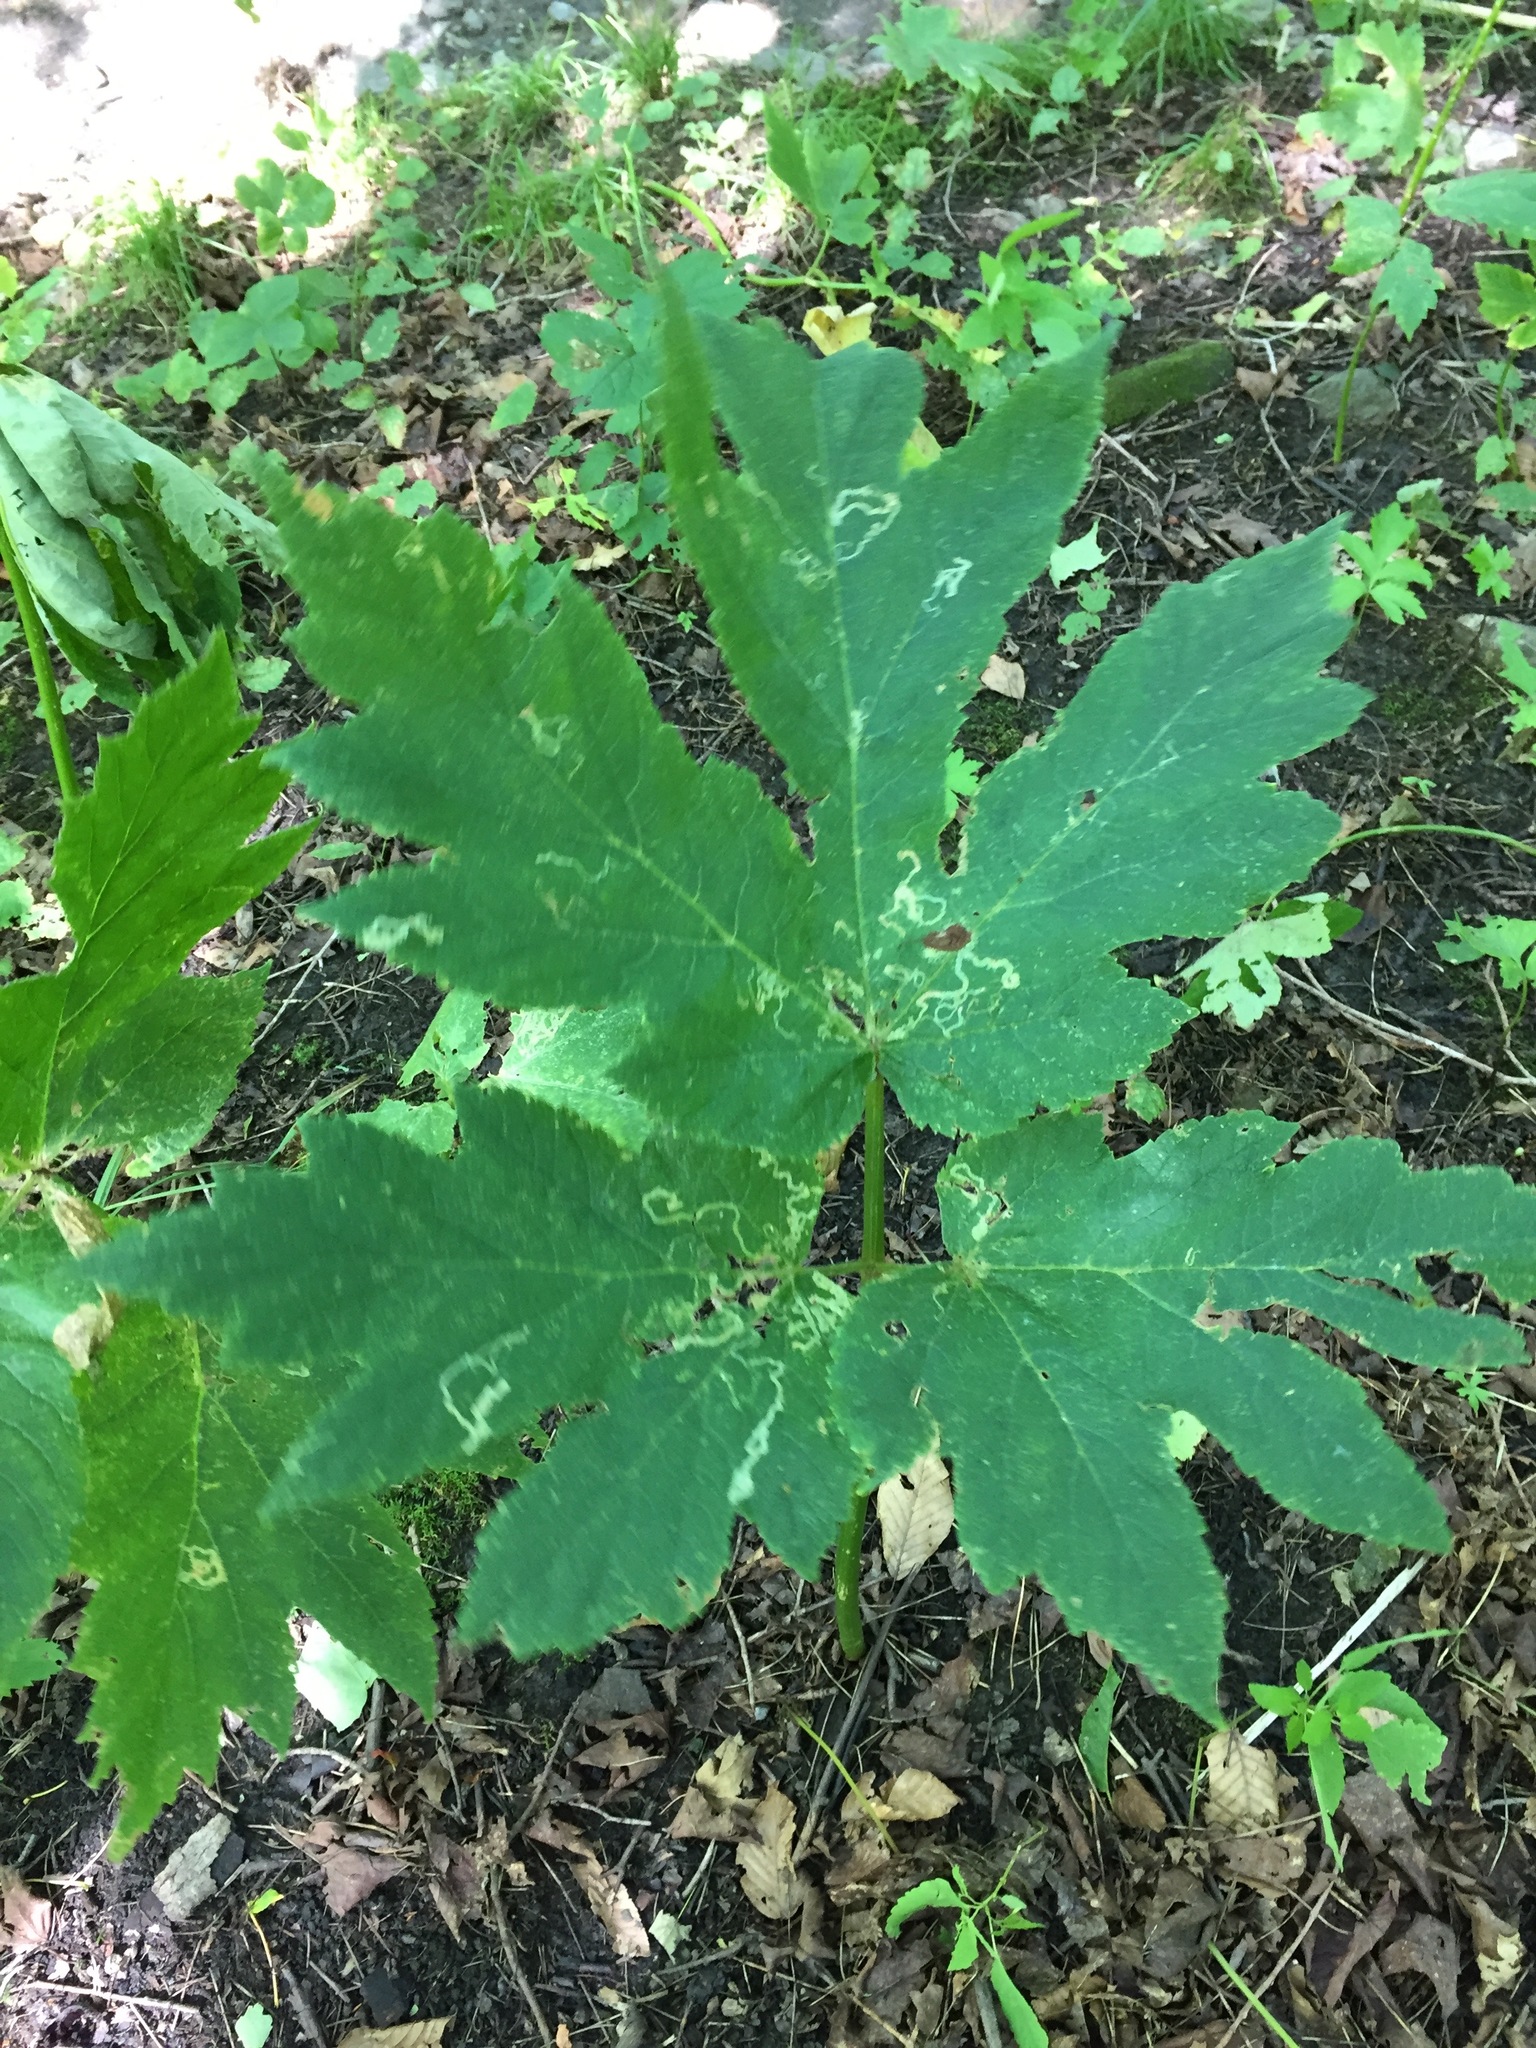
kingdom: Plantae
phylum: Tracheophyta
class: Magnoliopsida
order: Apiales
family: Apiaceae
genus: Heracleum
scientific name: Heracleum maximum
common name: American cow parsnip
